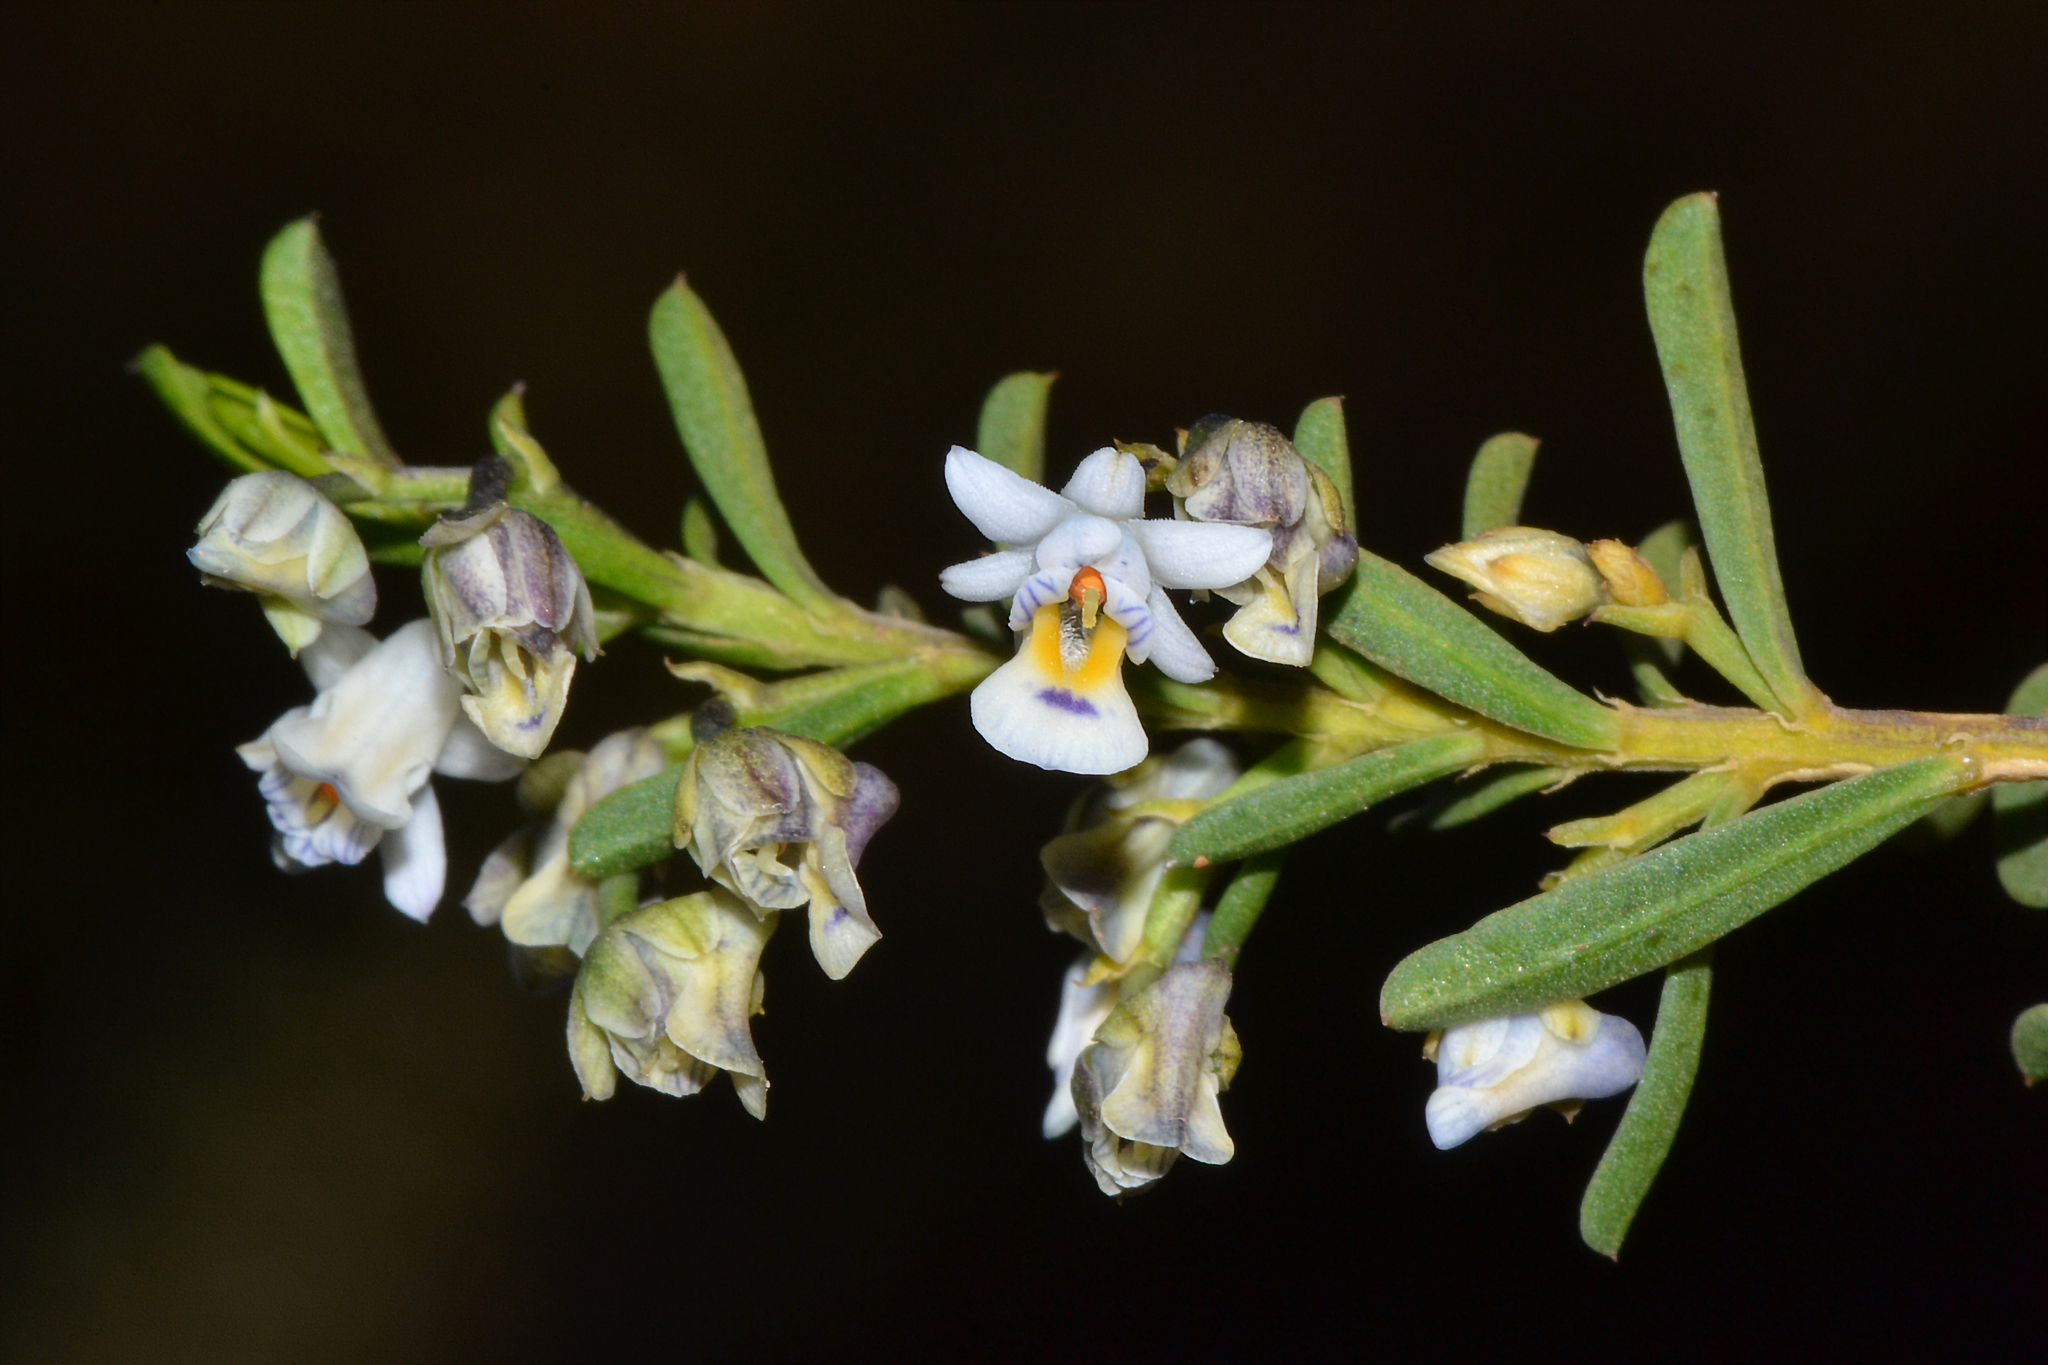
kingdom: Plantae
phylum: Tracheophyta
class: Magnoliopsida
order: Malpighiales
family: Violaceae
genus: Pigea
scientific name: Pigea floribunda
